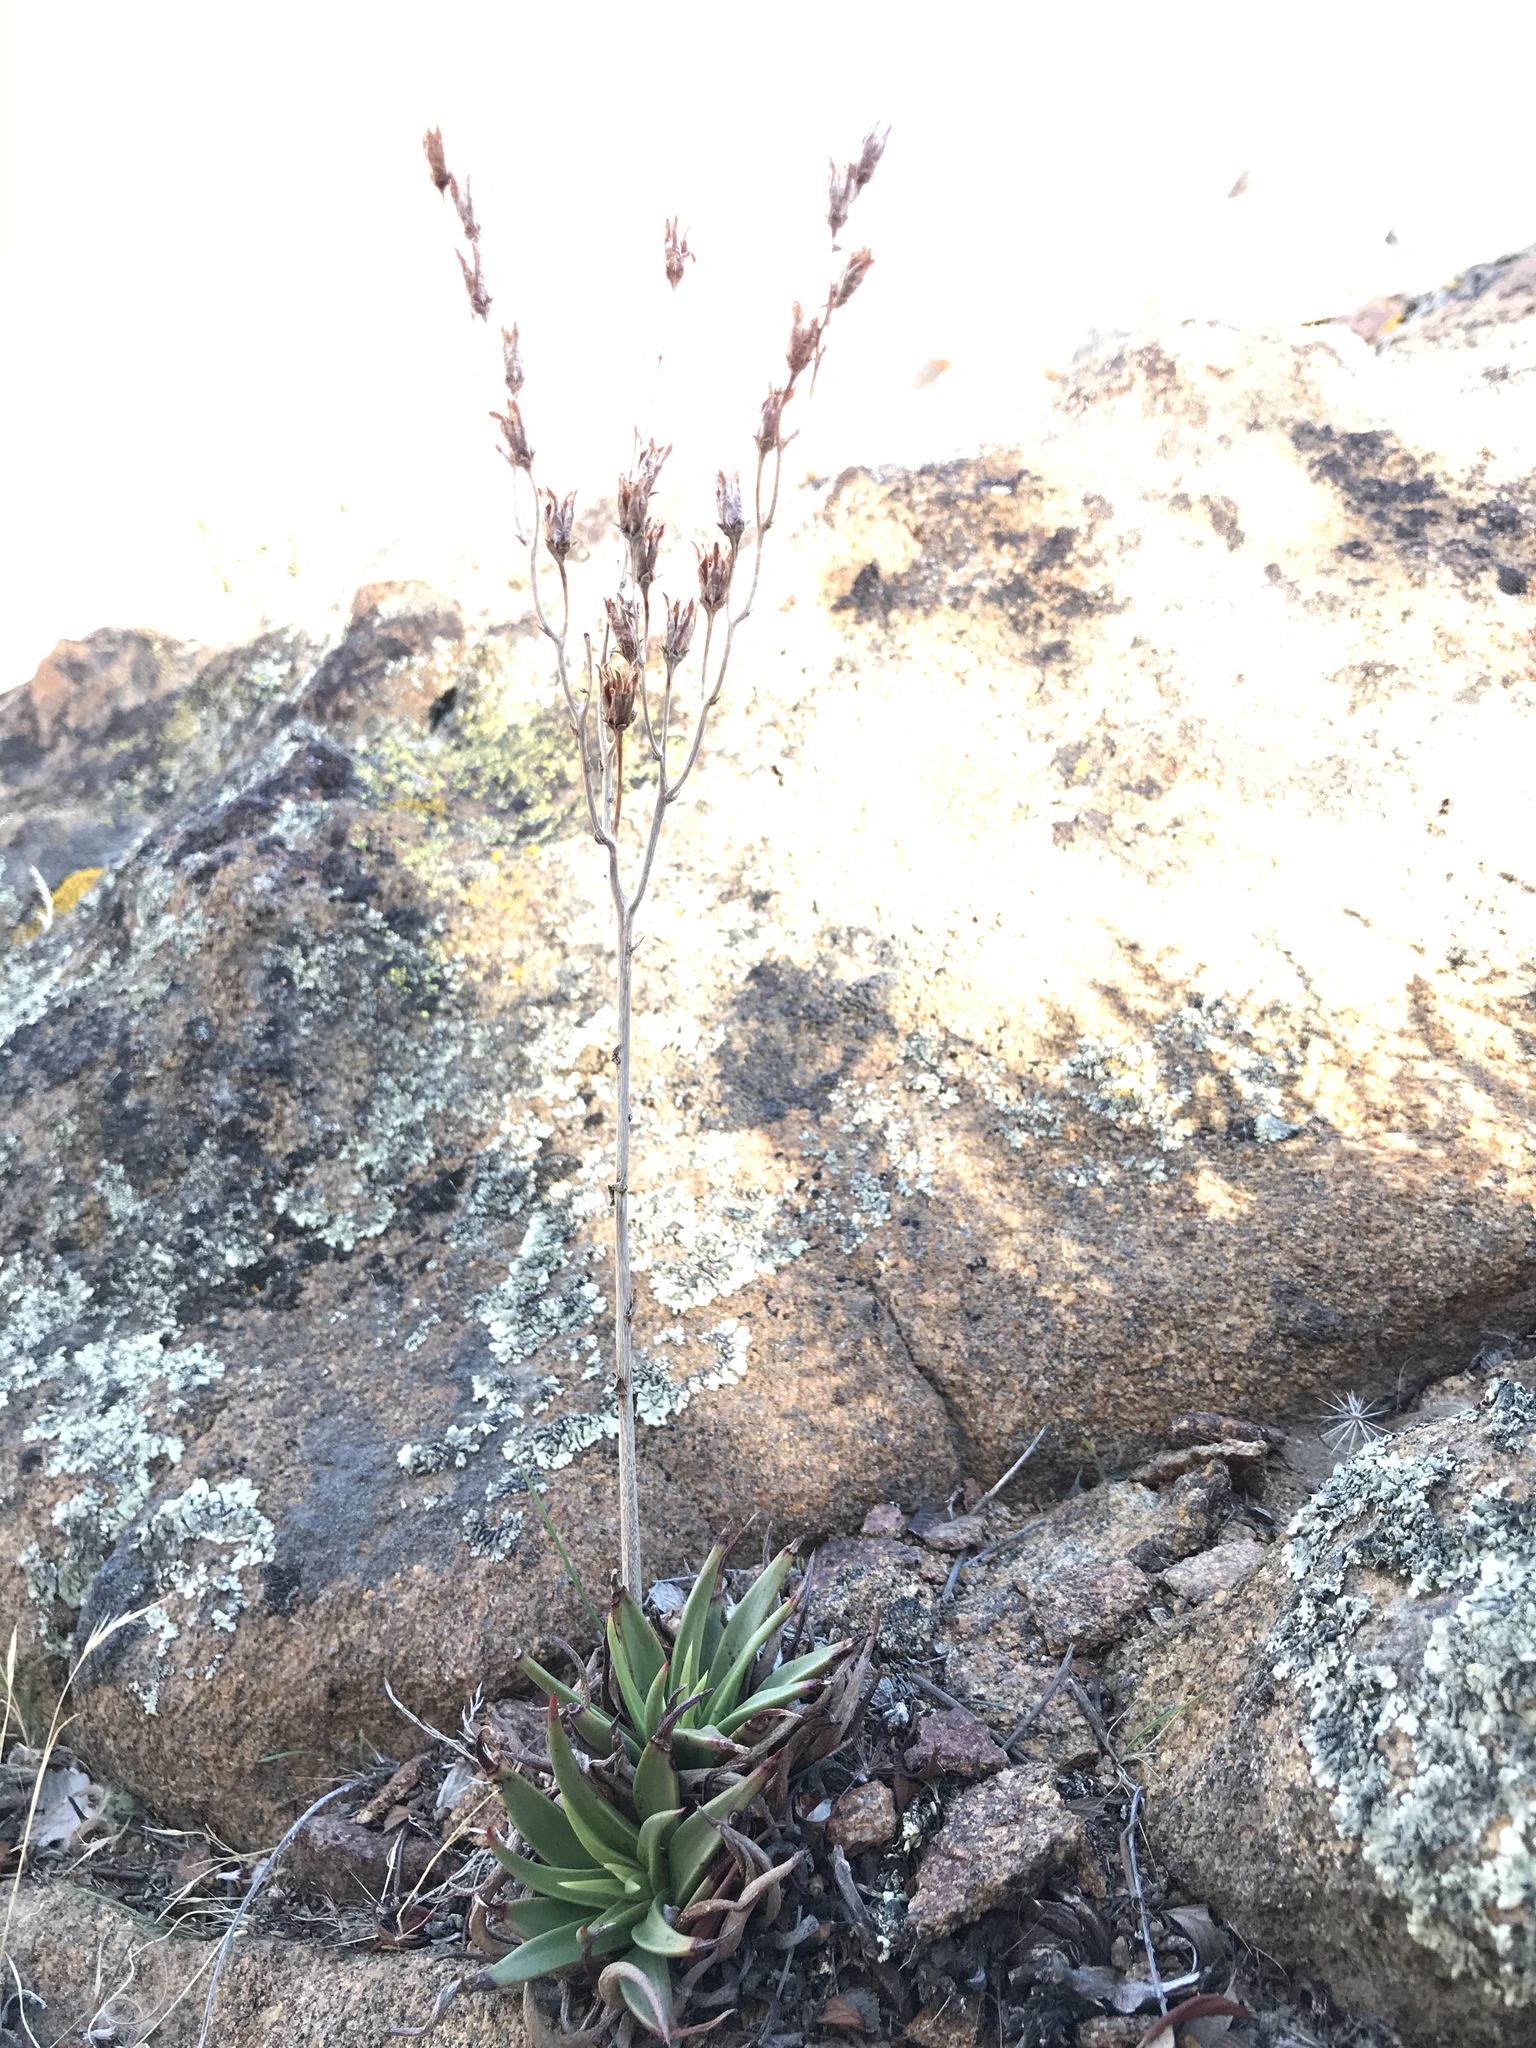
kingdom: Plantae
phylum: Tracheophyta
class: Magnoliopsida
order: Saxifragales
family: Crassulaceae
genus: Dudleya
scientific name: Dudleya saxosa
